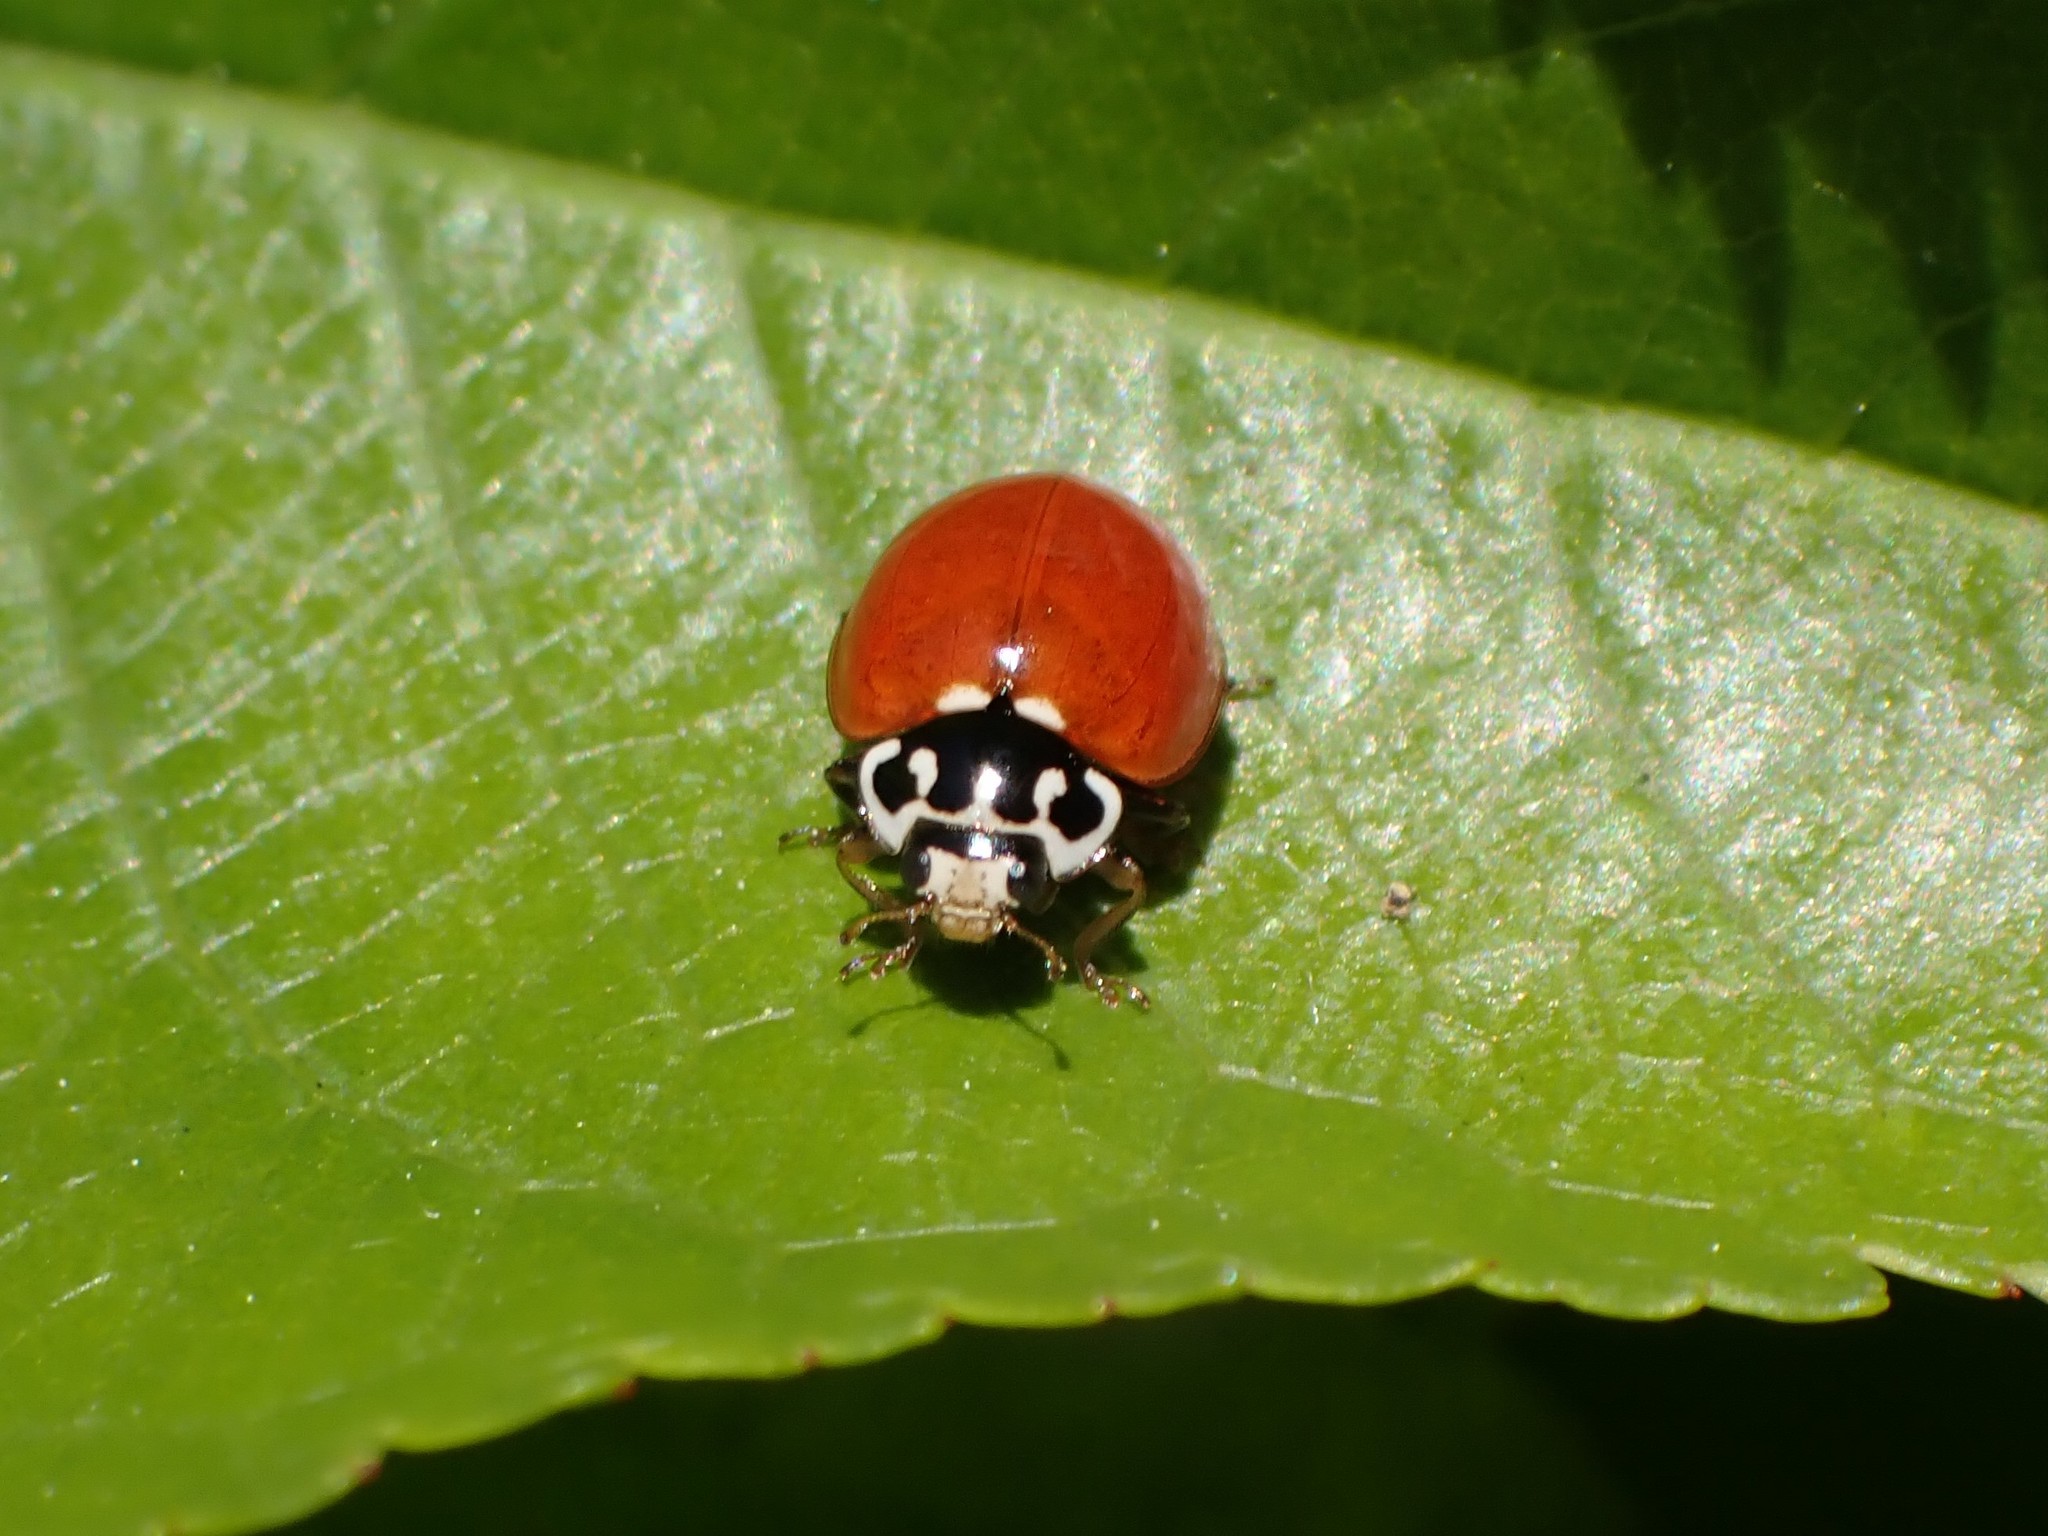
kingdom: Animalia
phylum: Arthropoda
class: Insecta
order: Coleoptera
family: Coccinellidae
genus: Cycloneda
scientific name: Cycloneda polita
